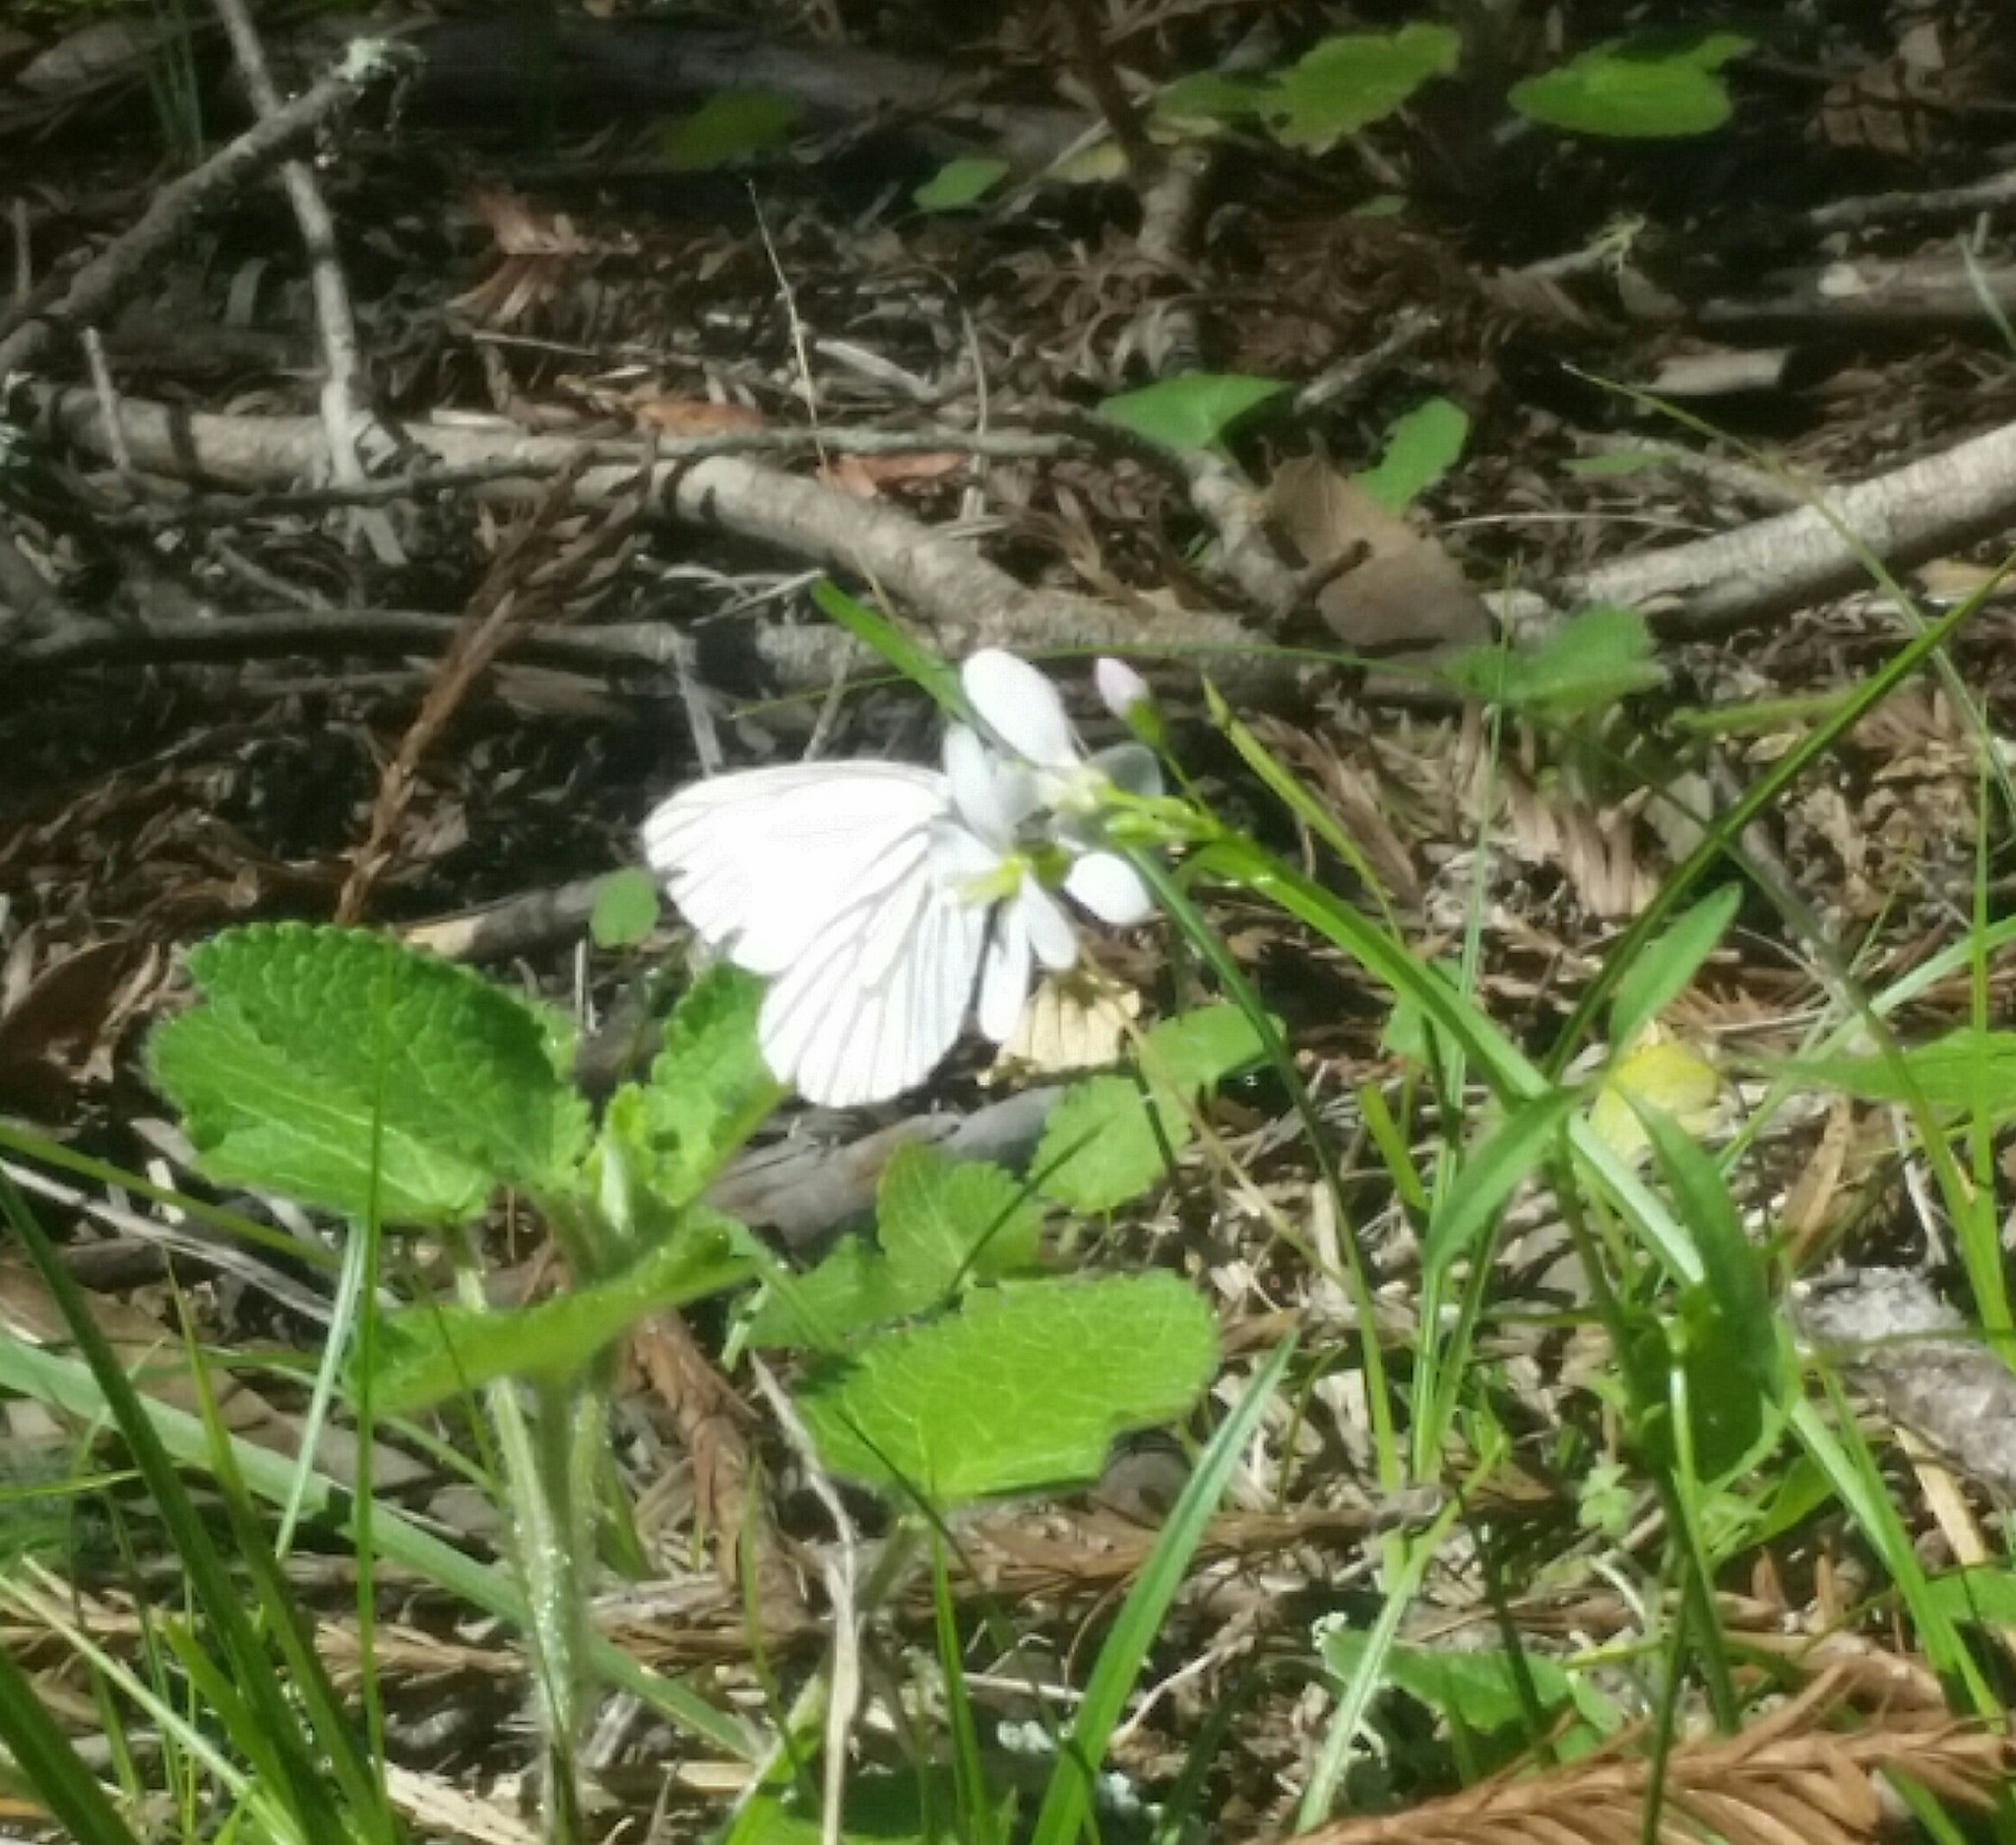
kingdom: Animalia
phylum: Arthropoda
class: Insecta
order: Lepidoptera
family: Pieridae
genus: Pieris
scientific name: Pieris marginalis
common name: Margined white
